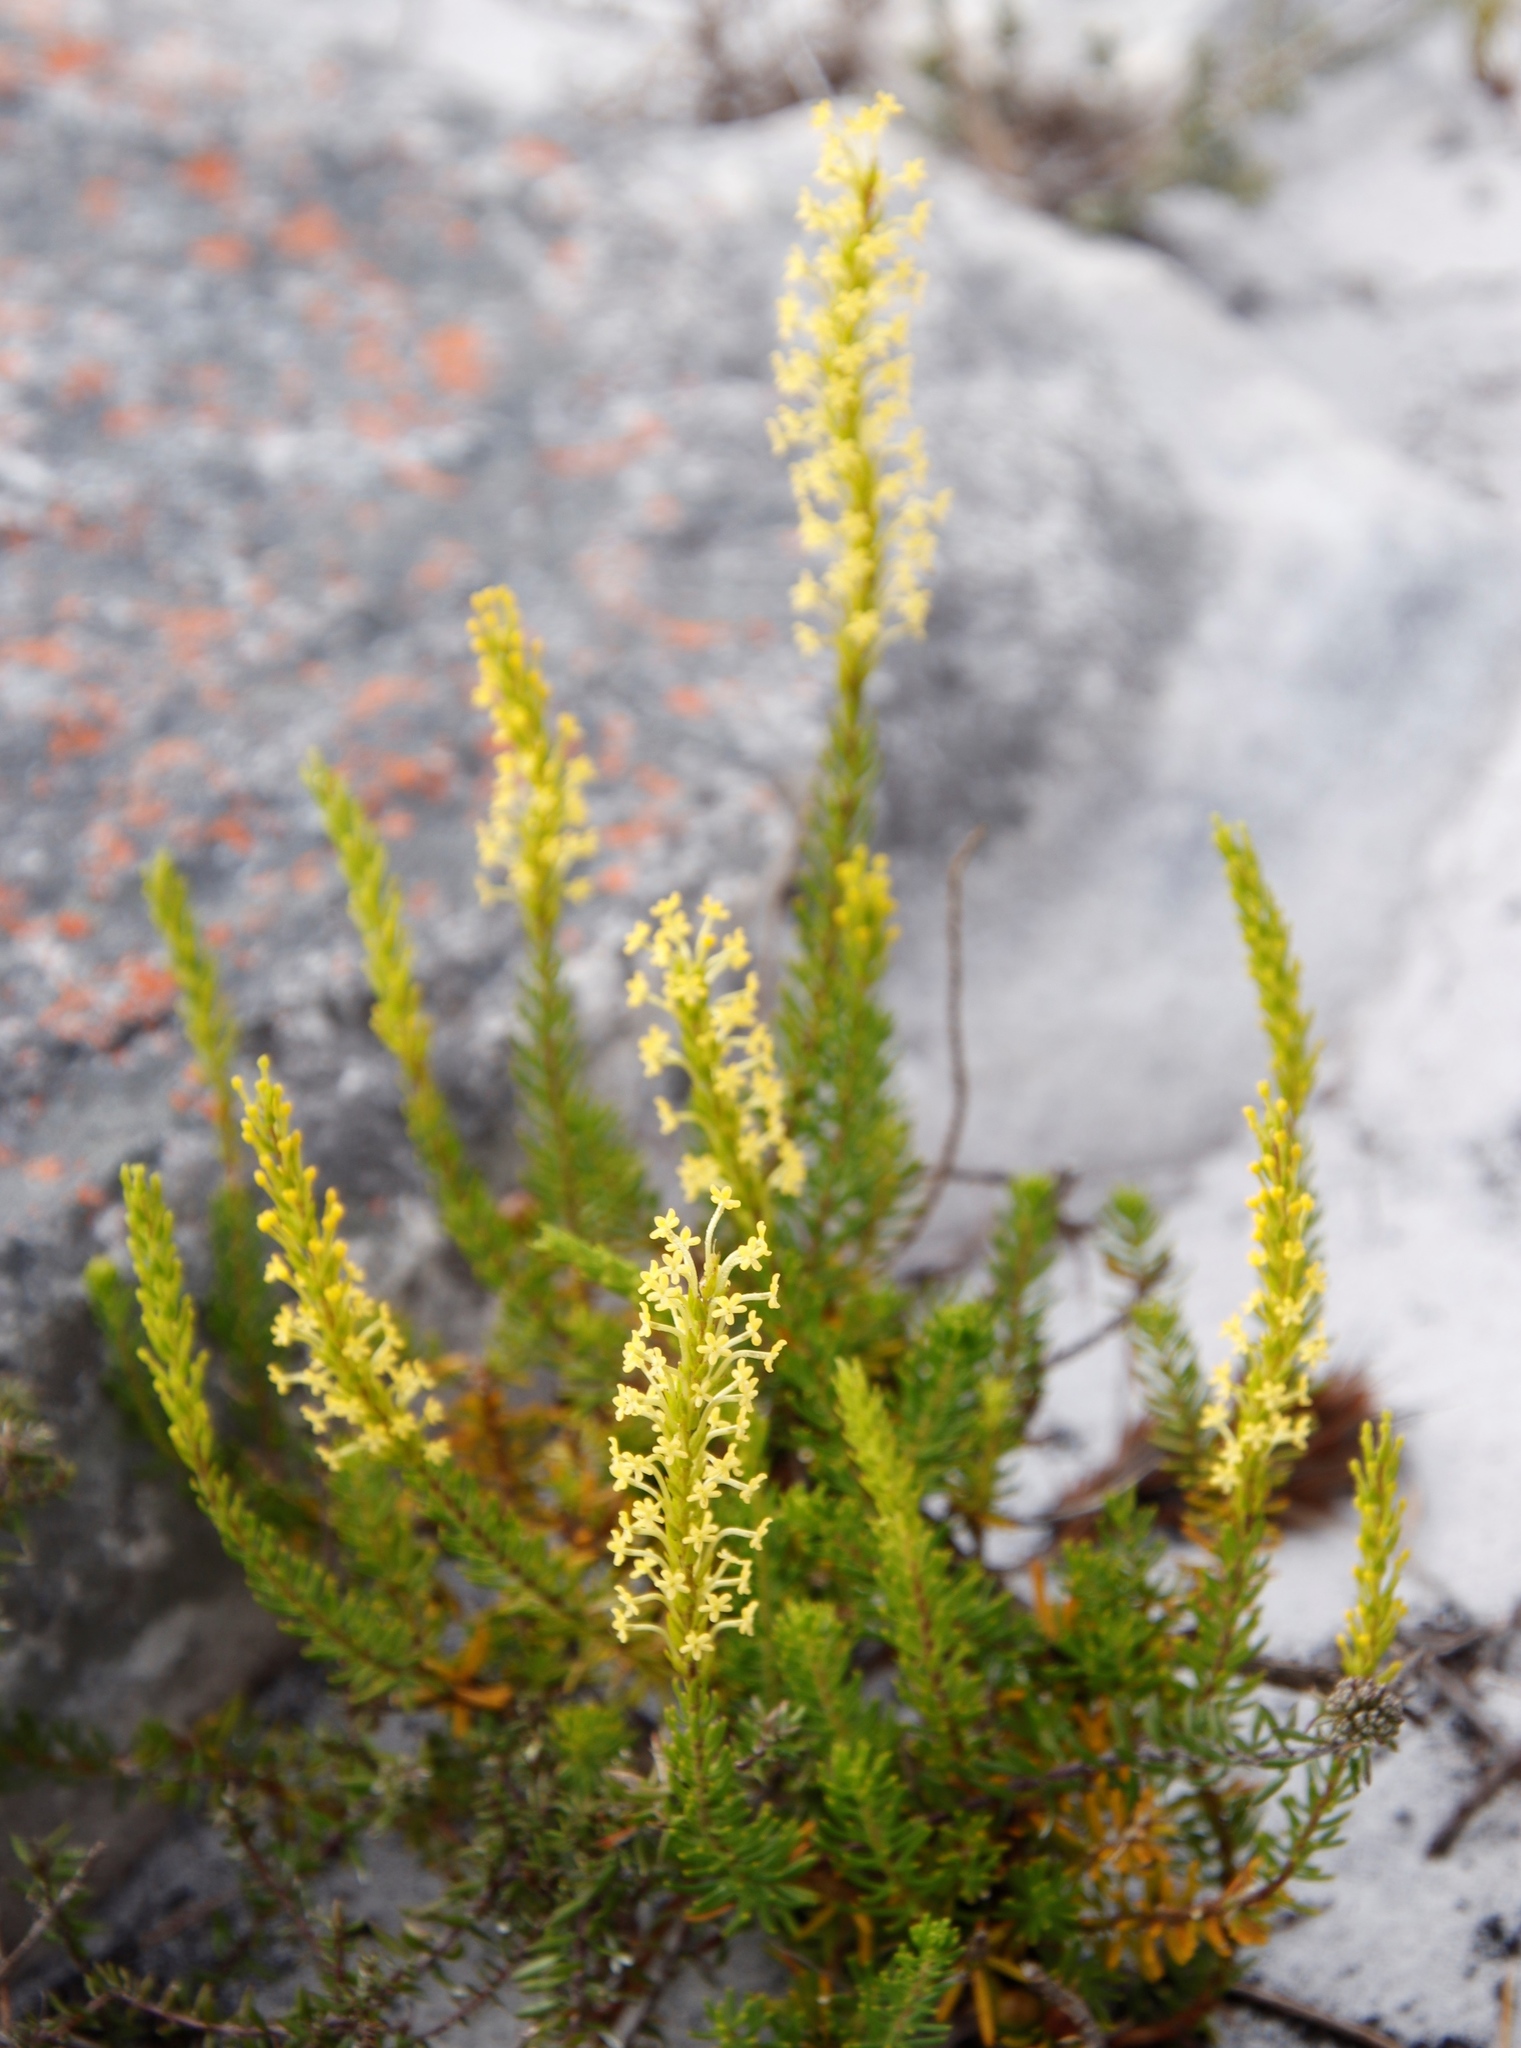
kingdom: Plantae
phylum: Tracheophyta
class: Magnoliopsida
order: Lamiales
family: Scrophulariaceae
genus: Microdon
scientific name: Microdon dubius
